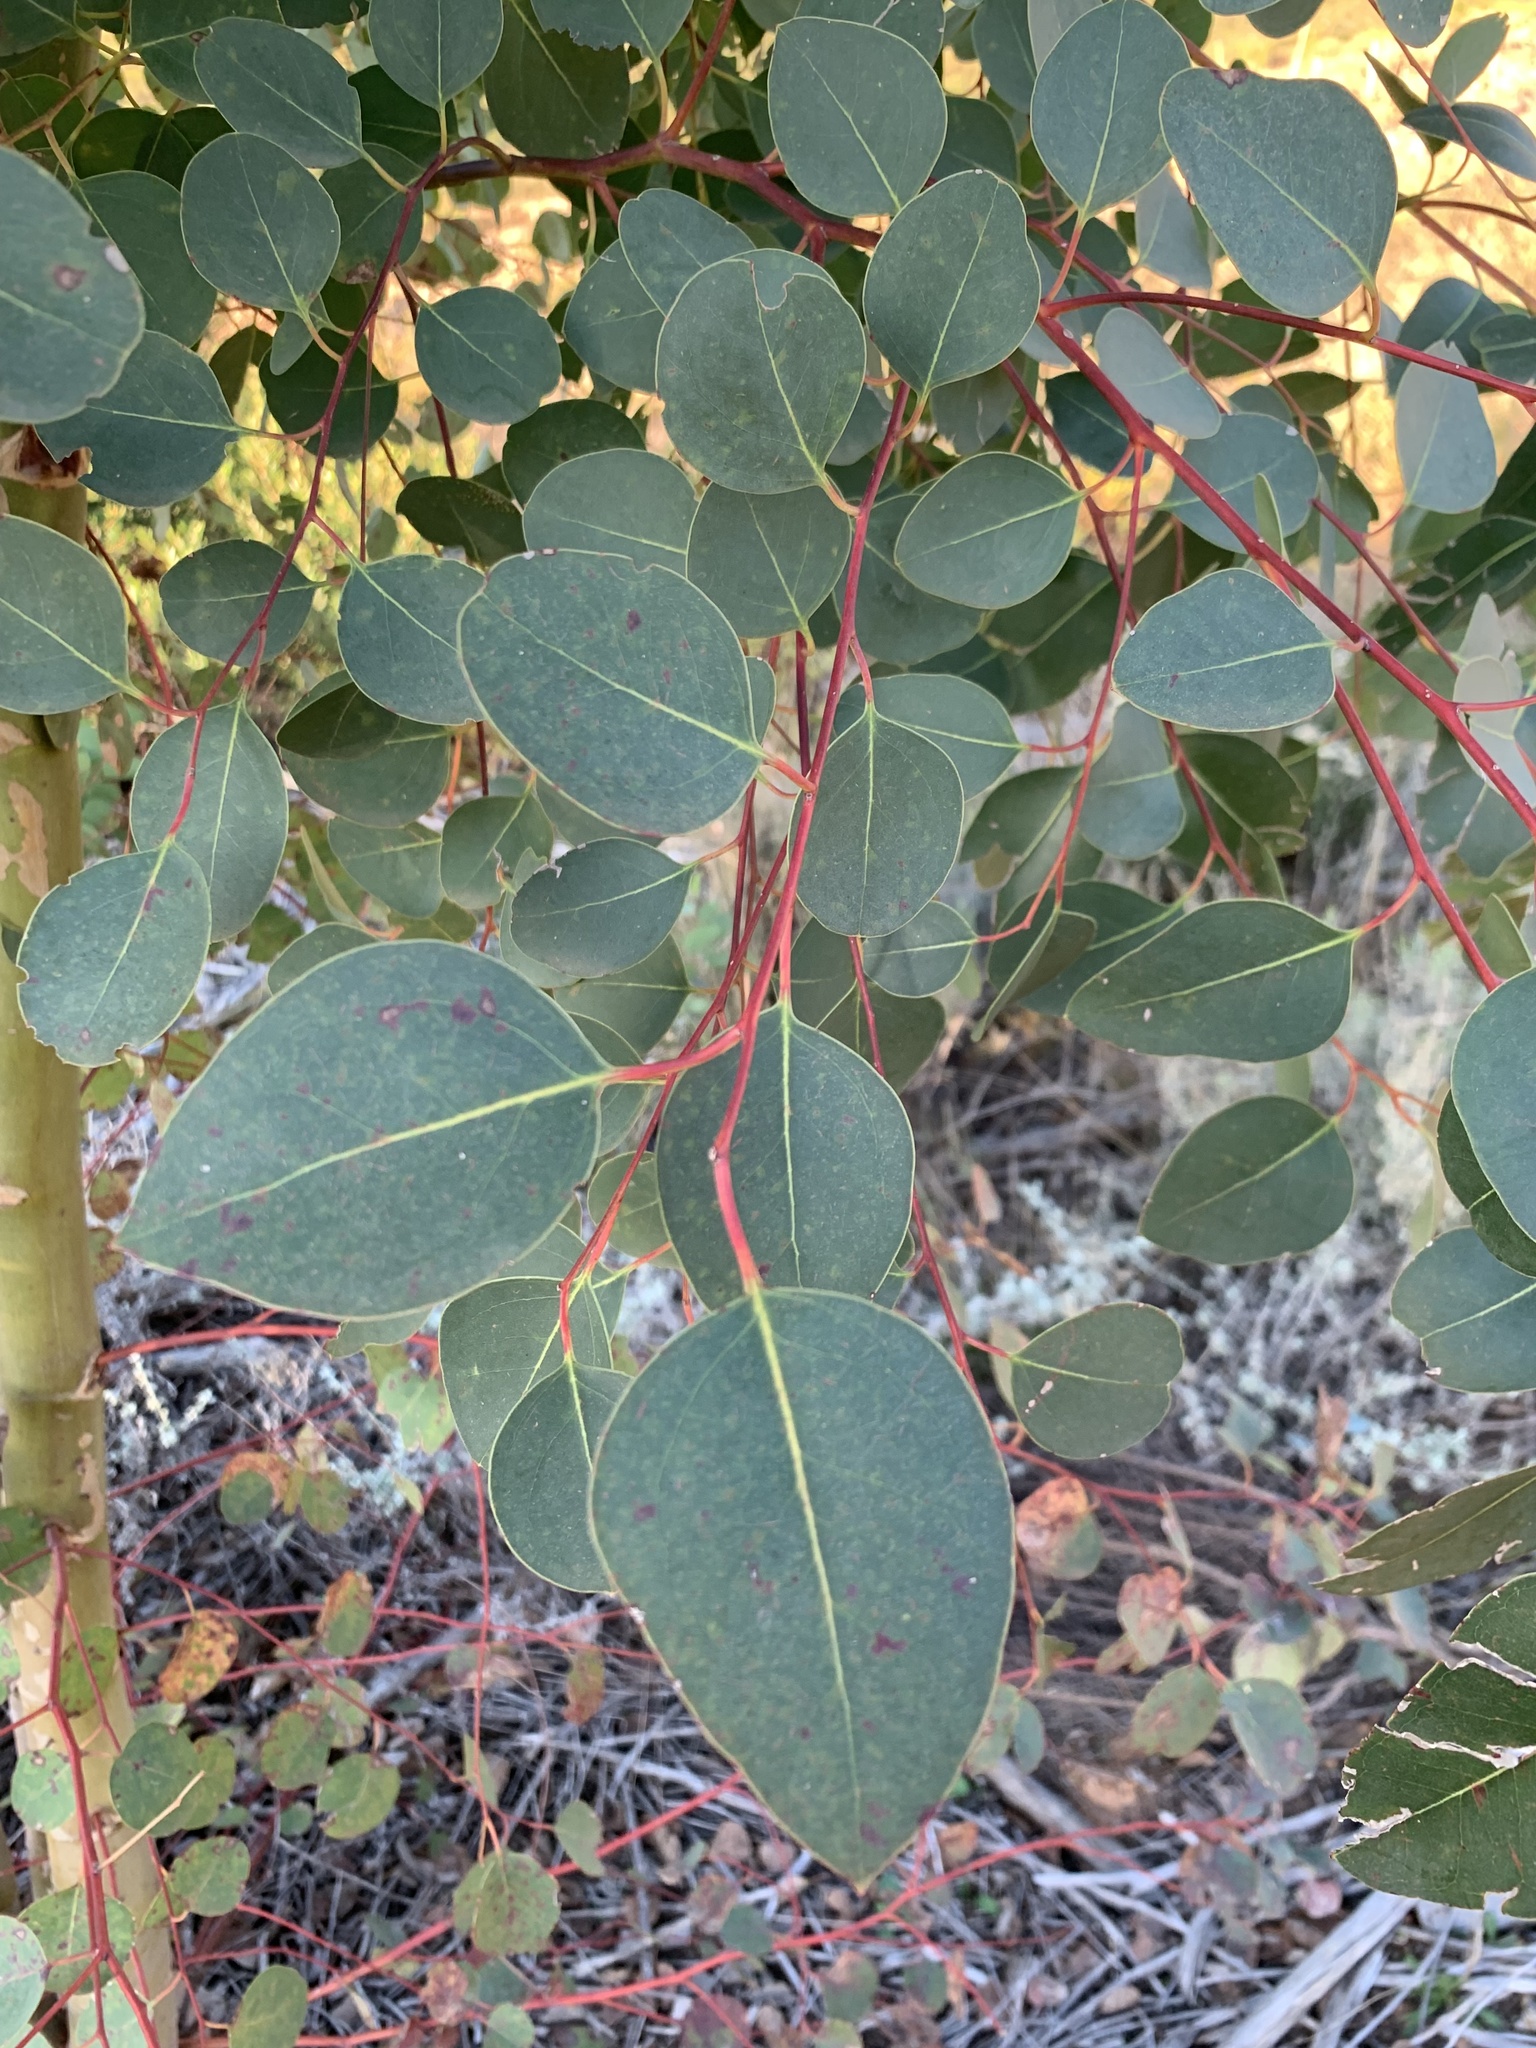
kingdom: Plantae
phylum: Tracheophyta
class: Magnoliopsida
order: Myrtales
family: Myrtaceae
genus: Eucalyptus
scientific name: Eucalyptus cladocalyx
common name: Sugargum
